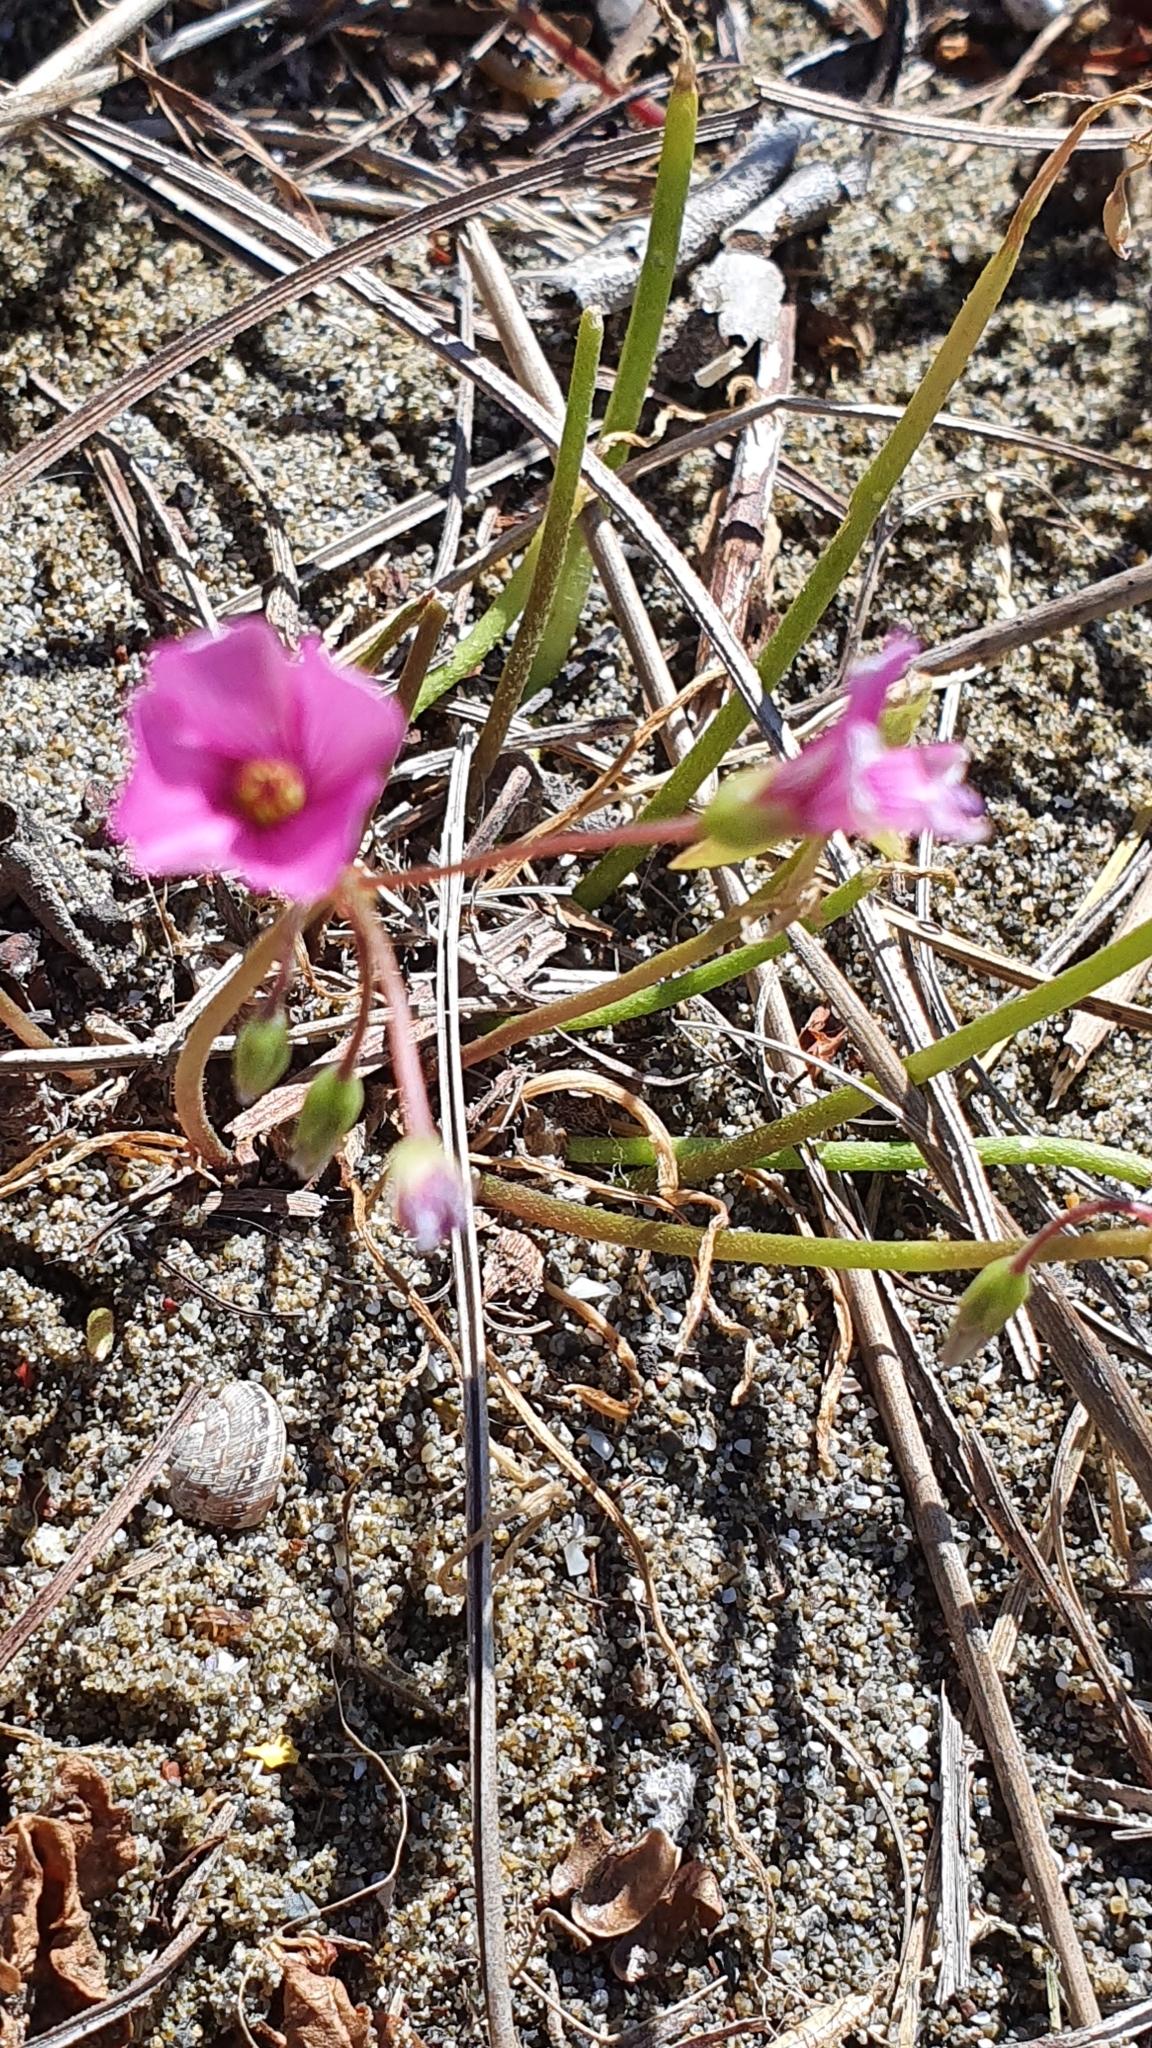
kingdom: Plantae
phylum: Tracheophyta
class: Magnoliopsida
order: Oxalidales
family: Oxalidaceae
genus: Oxalis
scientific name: Oxalis articulata
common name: Pink-sorrel
